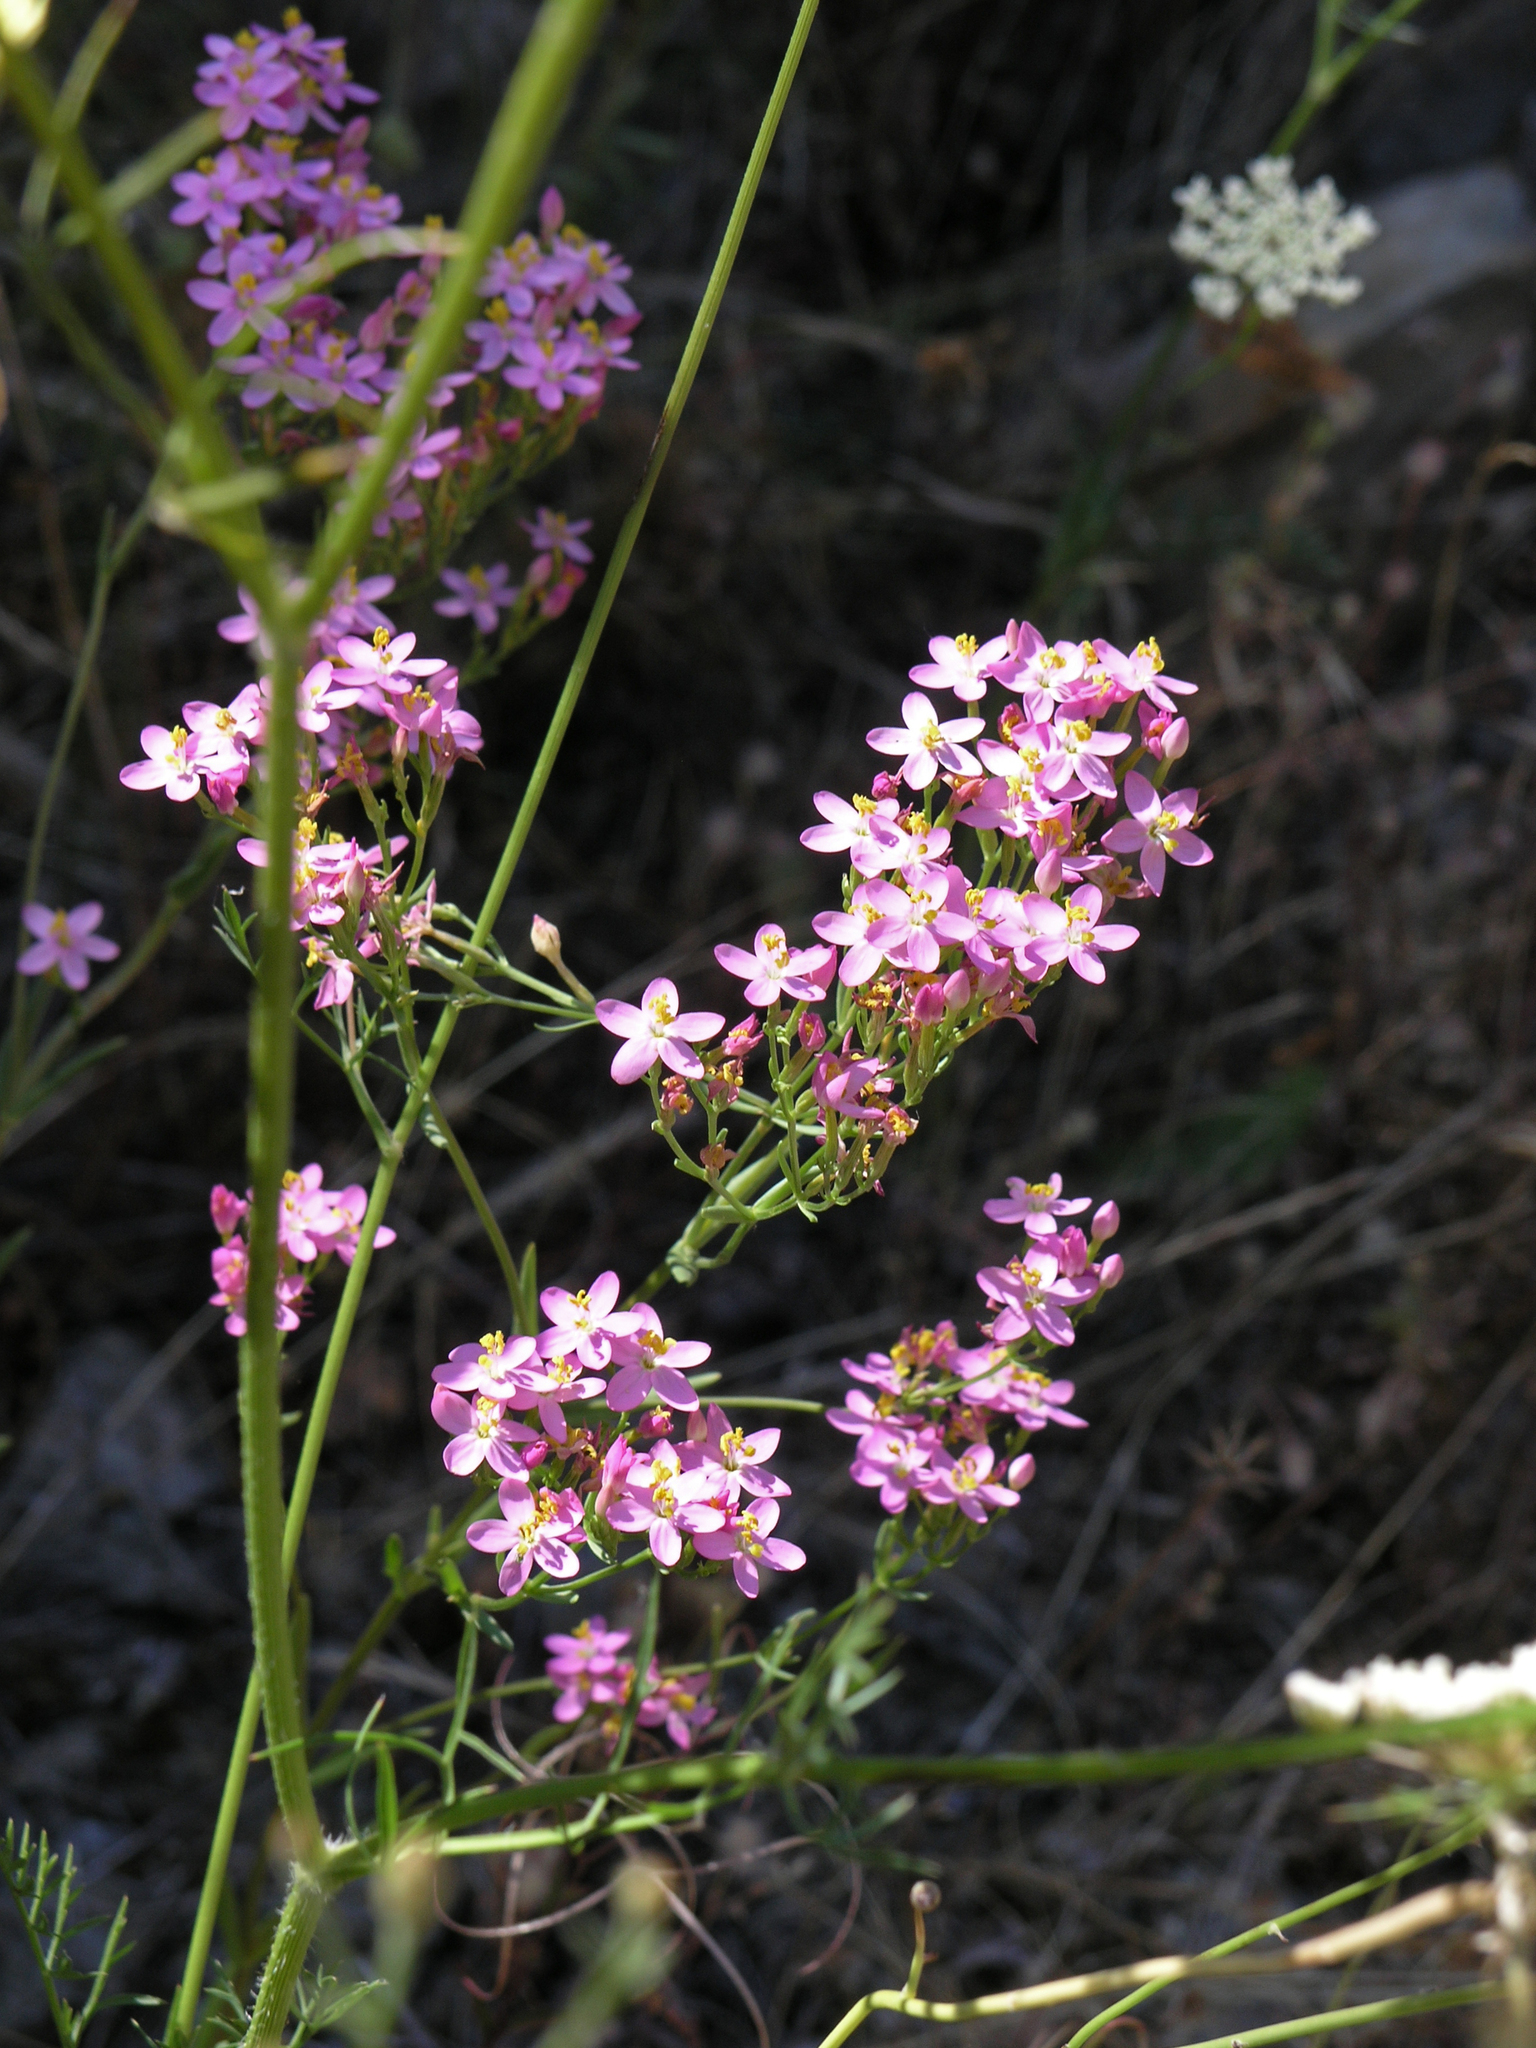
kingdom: Plantae
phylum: Tracheophyta
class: Magnoliopsida
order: Gentianales
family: Gentianaceae
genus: Centaurium
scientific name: Centaurium erythraea
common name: Common centaury
